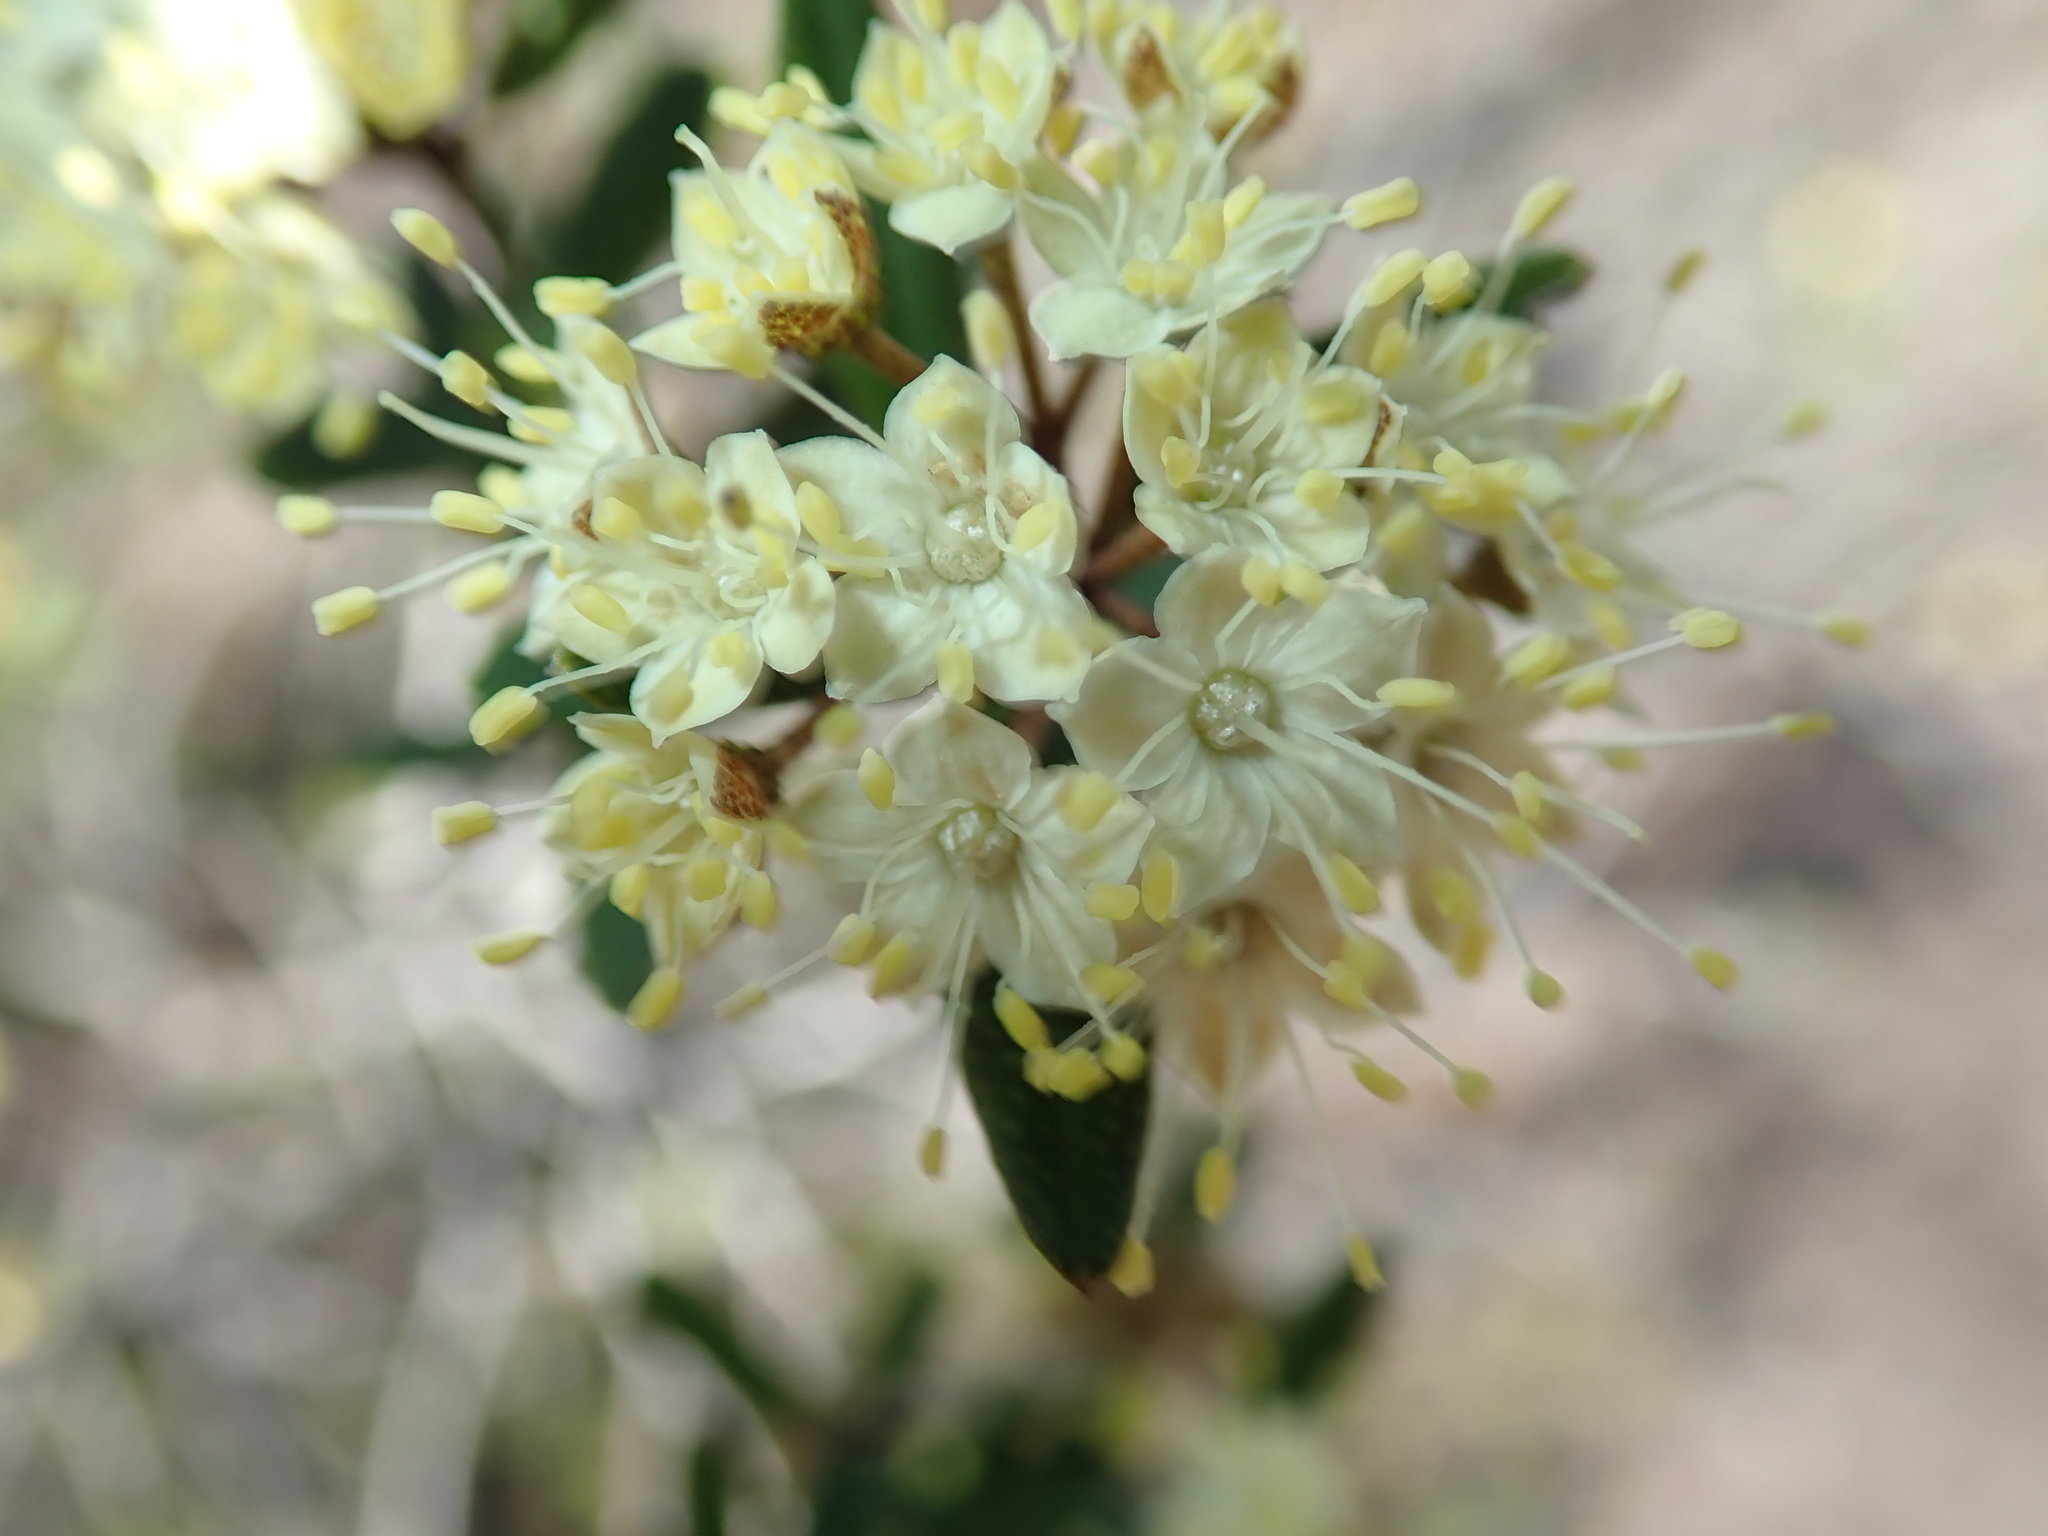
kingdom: Plantae
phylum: Tracheophyta
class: Magnoliopsida
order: Sapindales
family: Rutaceae
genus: Phebalium
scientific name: Phebalium squamulosum
